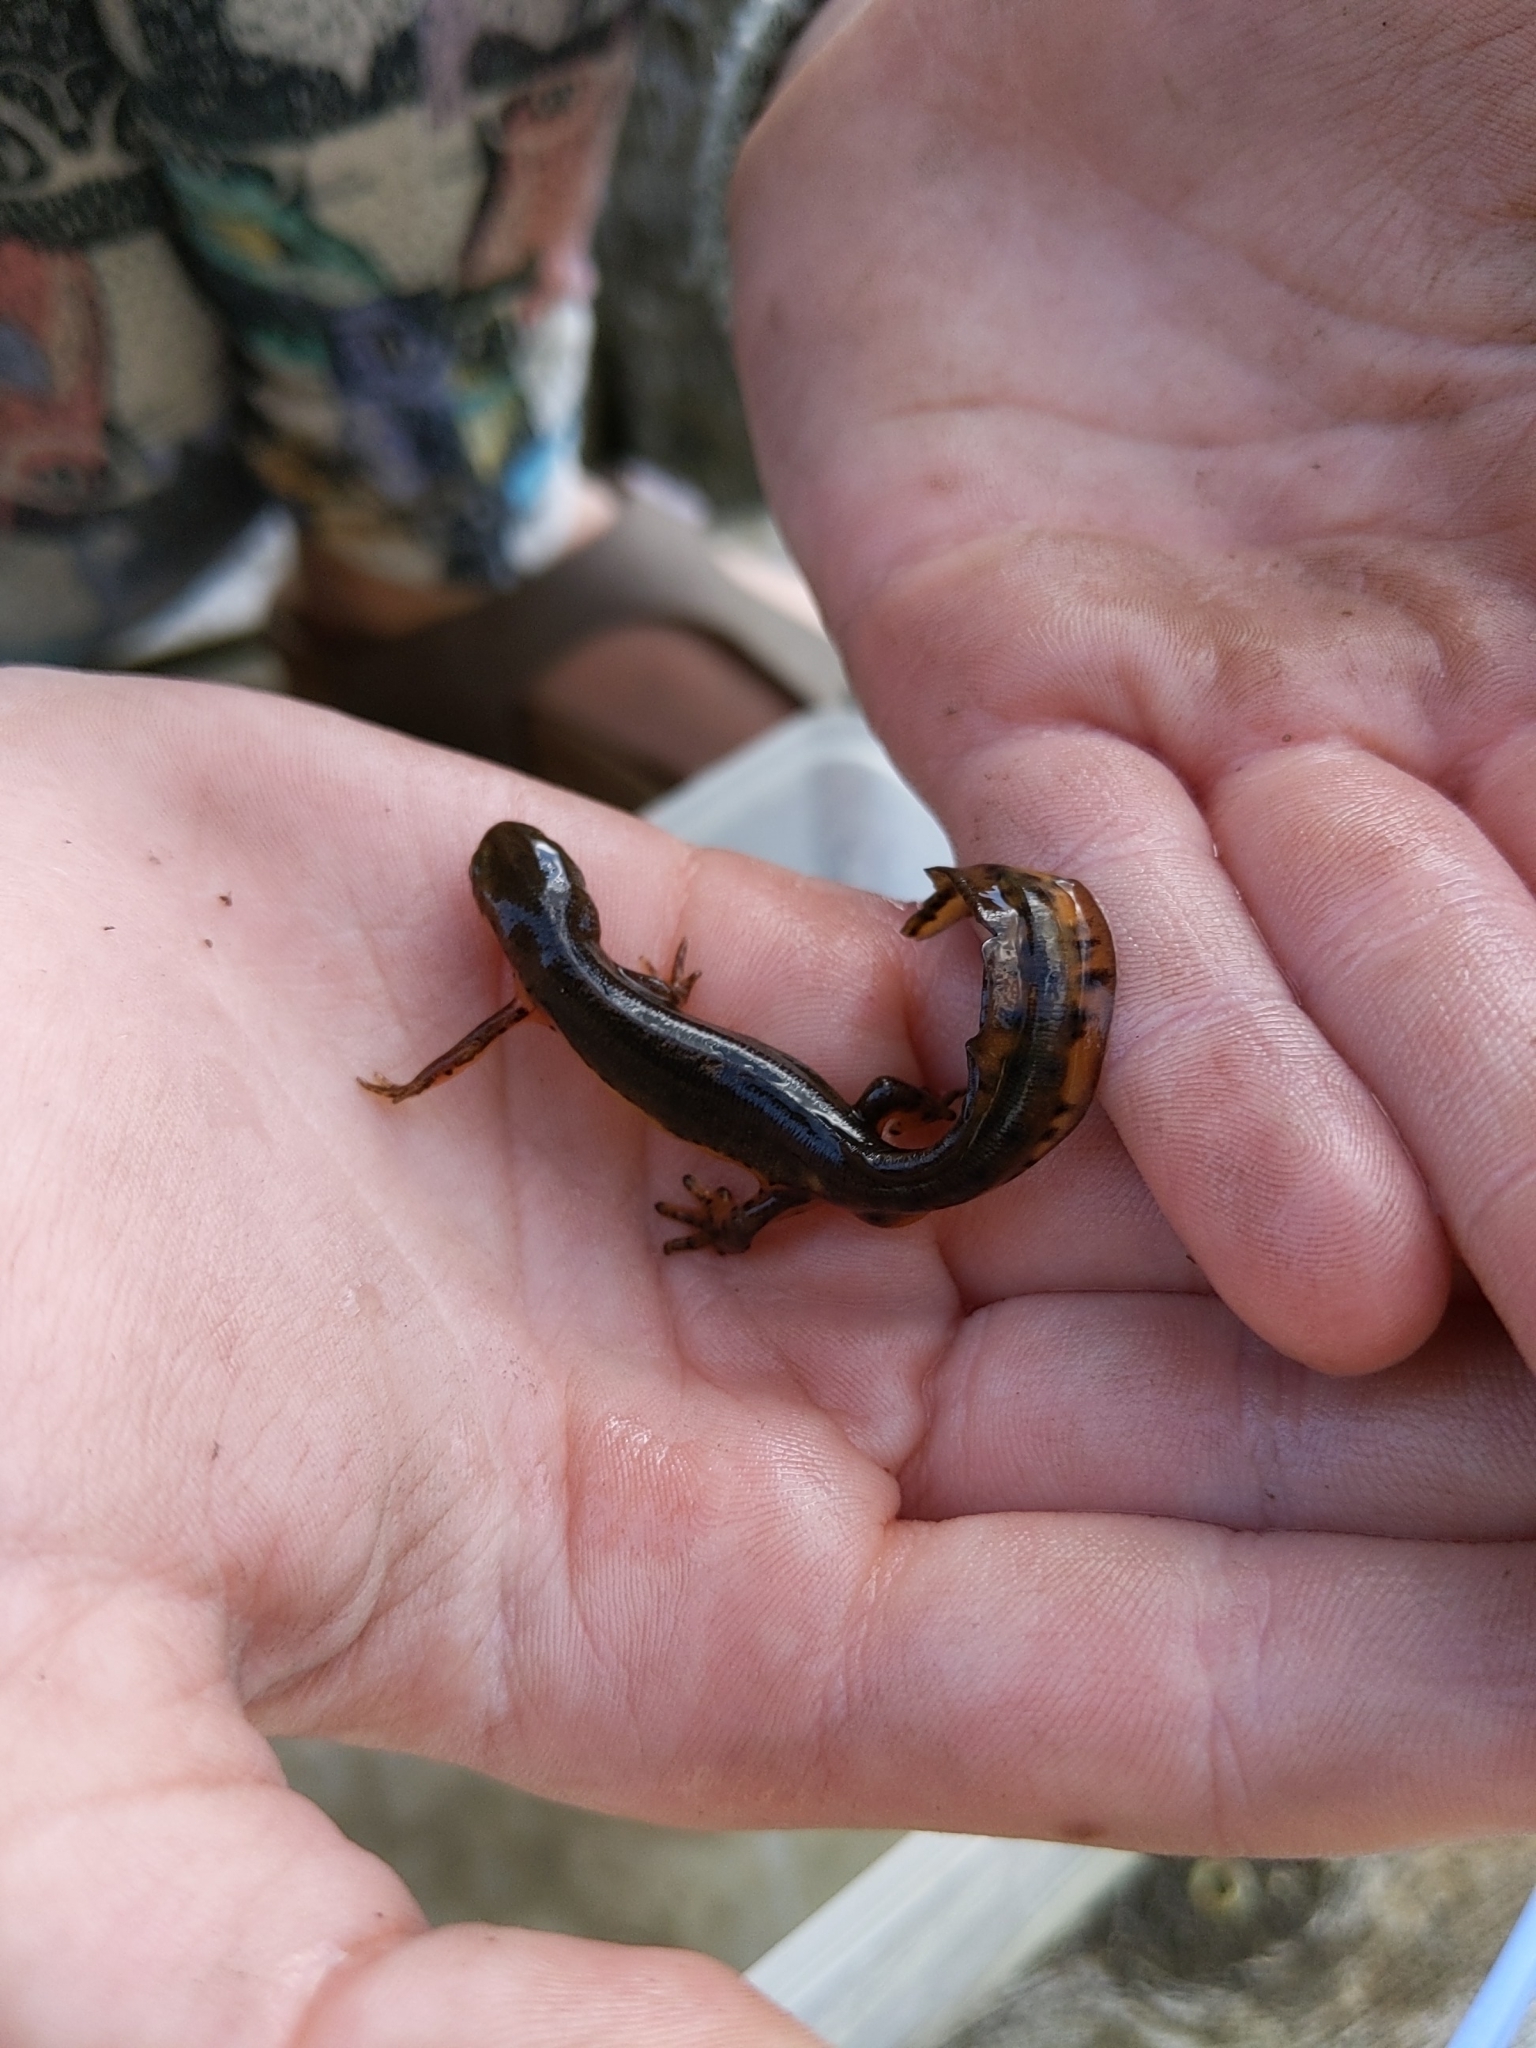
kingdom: Animalia
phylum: Chordata
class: Amphibia
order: Caudata
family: Salamandridae
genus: Notophthalmus
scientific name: Notophthalmus viridescens
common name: Eastern newt
